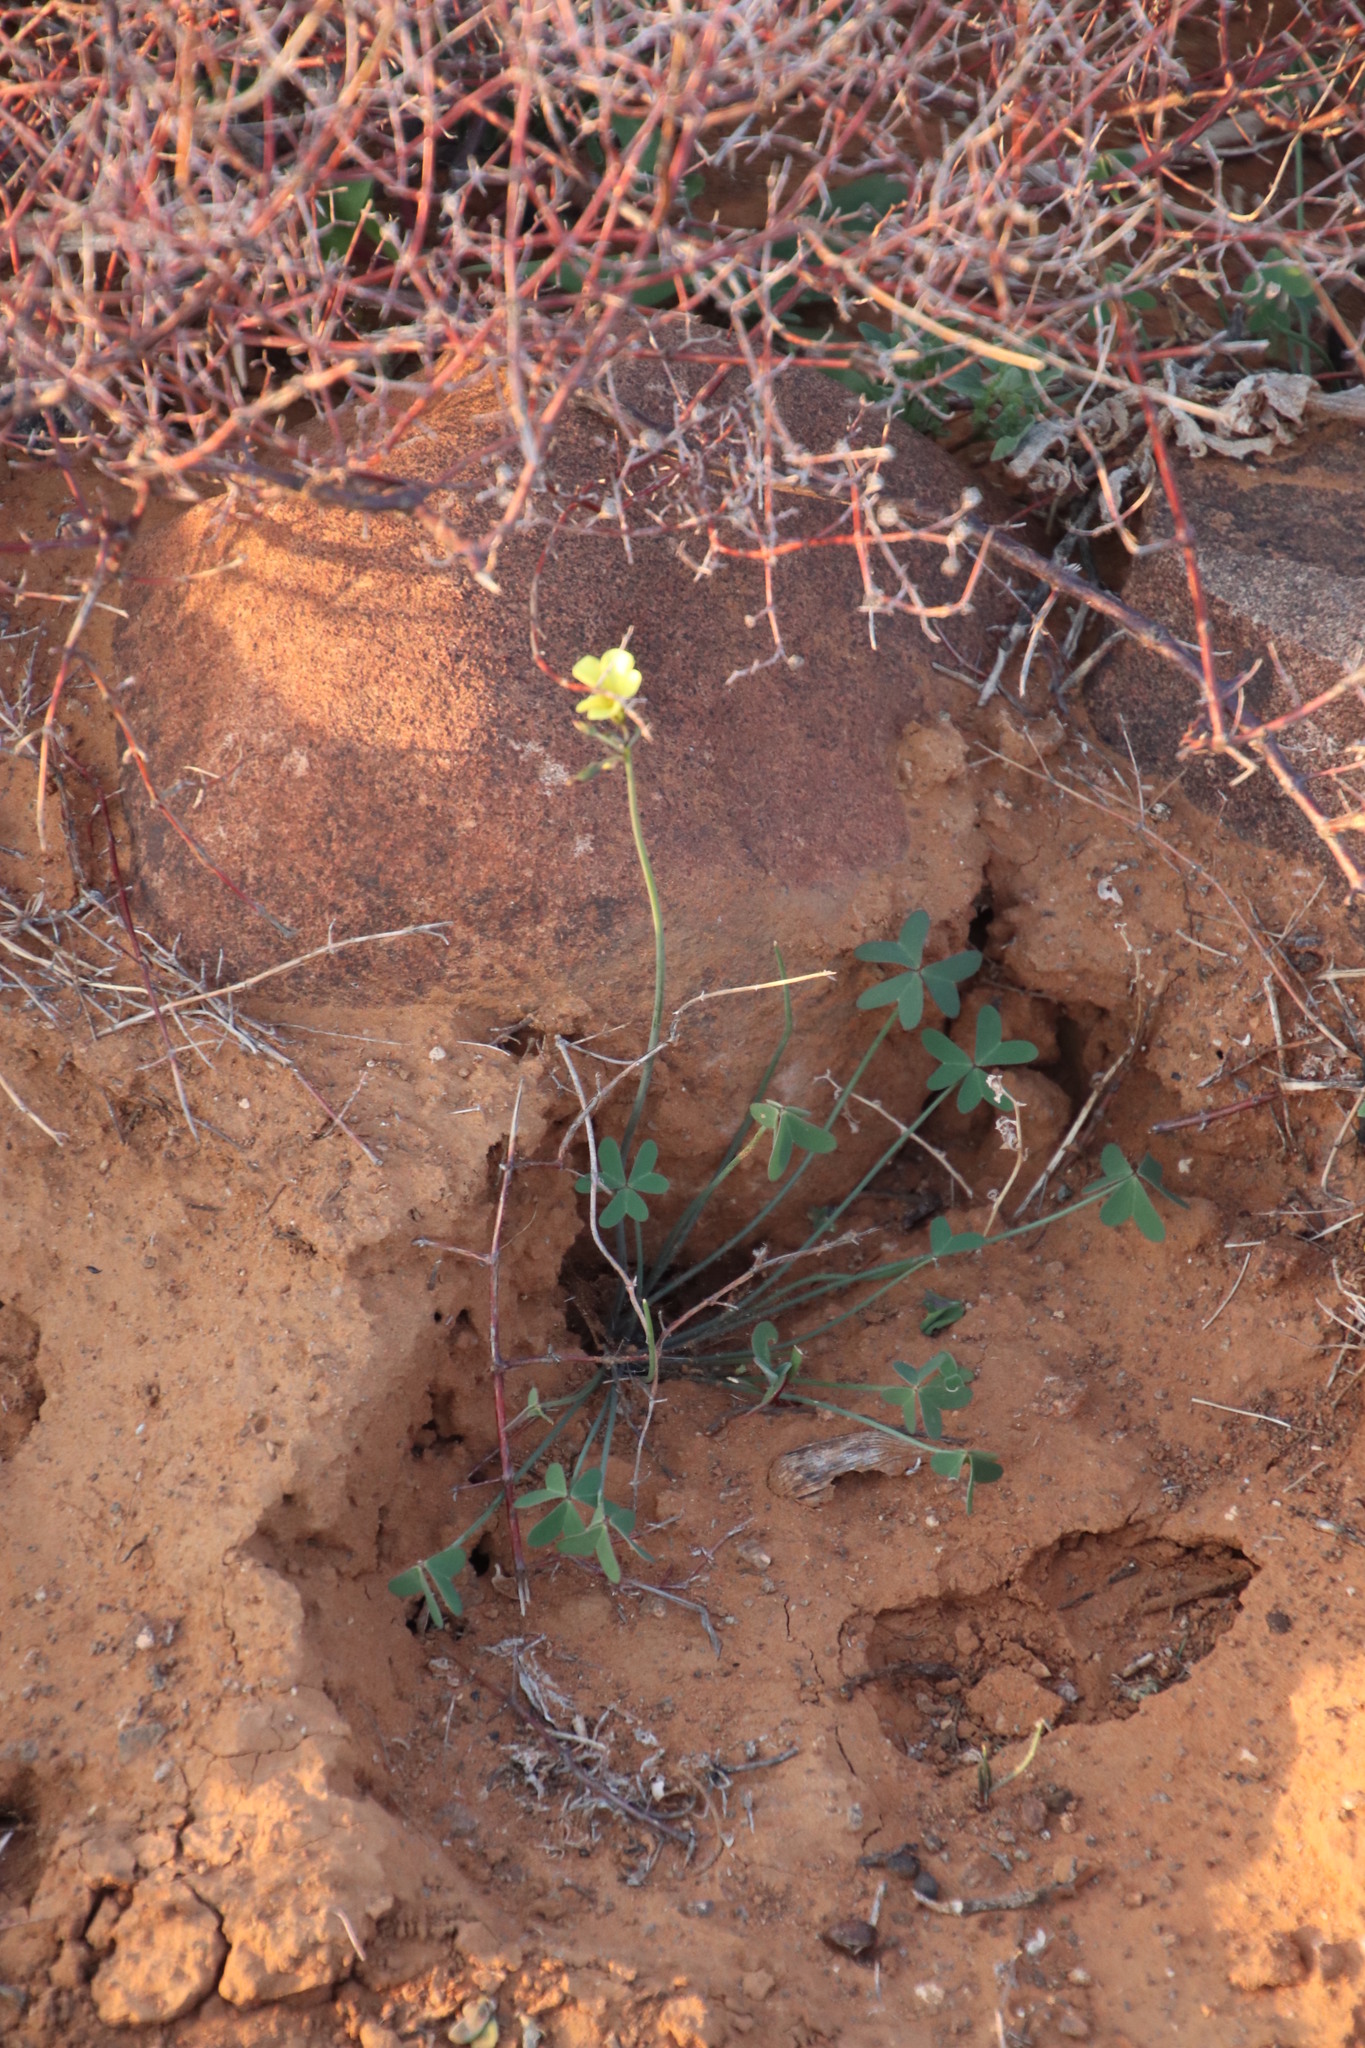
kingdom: Plantae
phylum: Tracheophyta
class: Magnoliopsida
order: Oxalidales
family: Oxalidaceae
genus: Oxalis
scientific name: Oxalis pes-caprae
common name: Bermuda-buttercup
